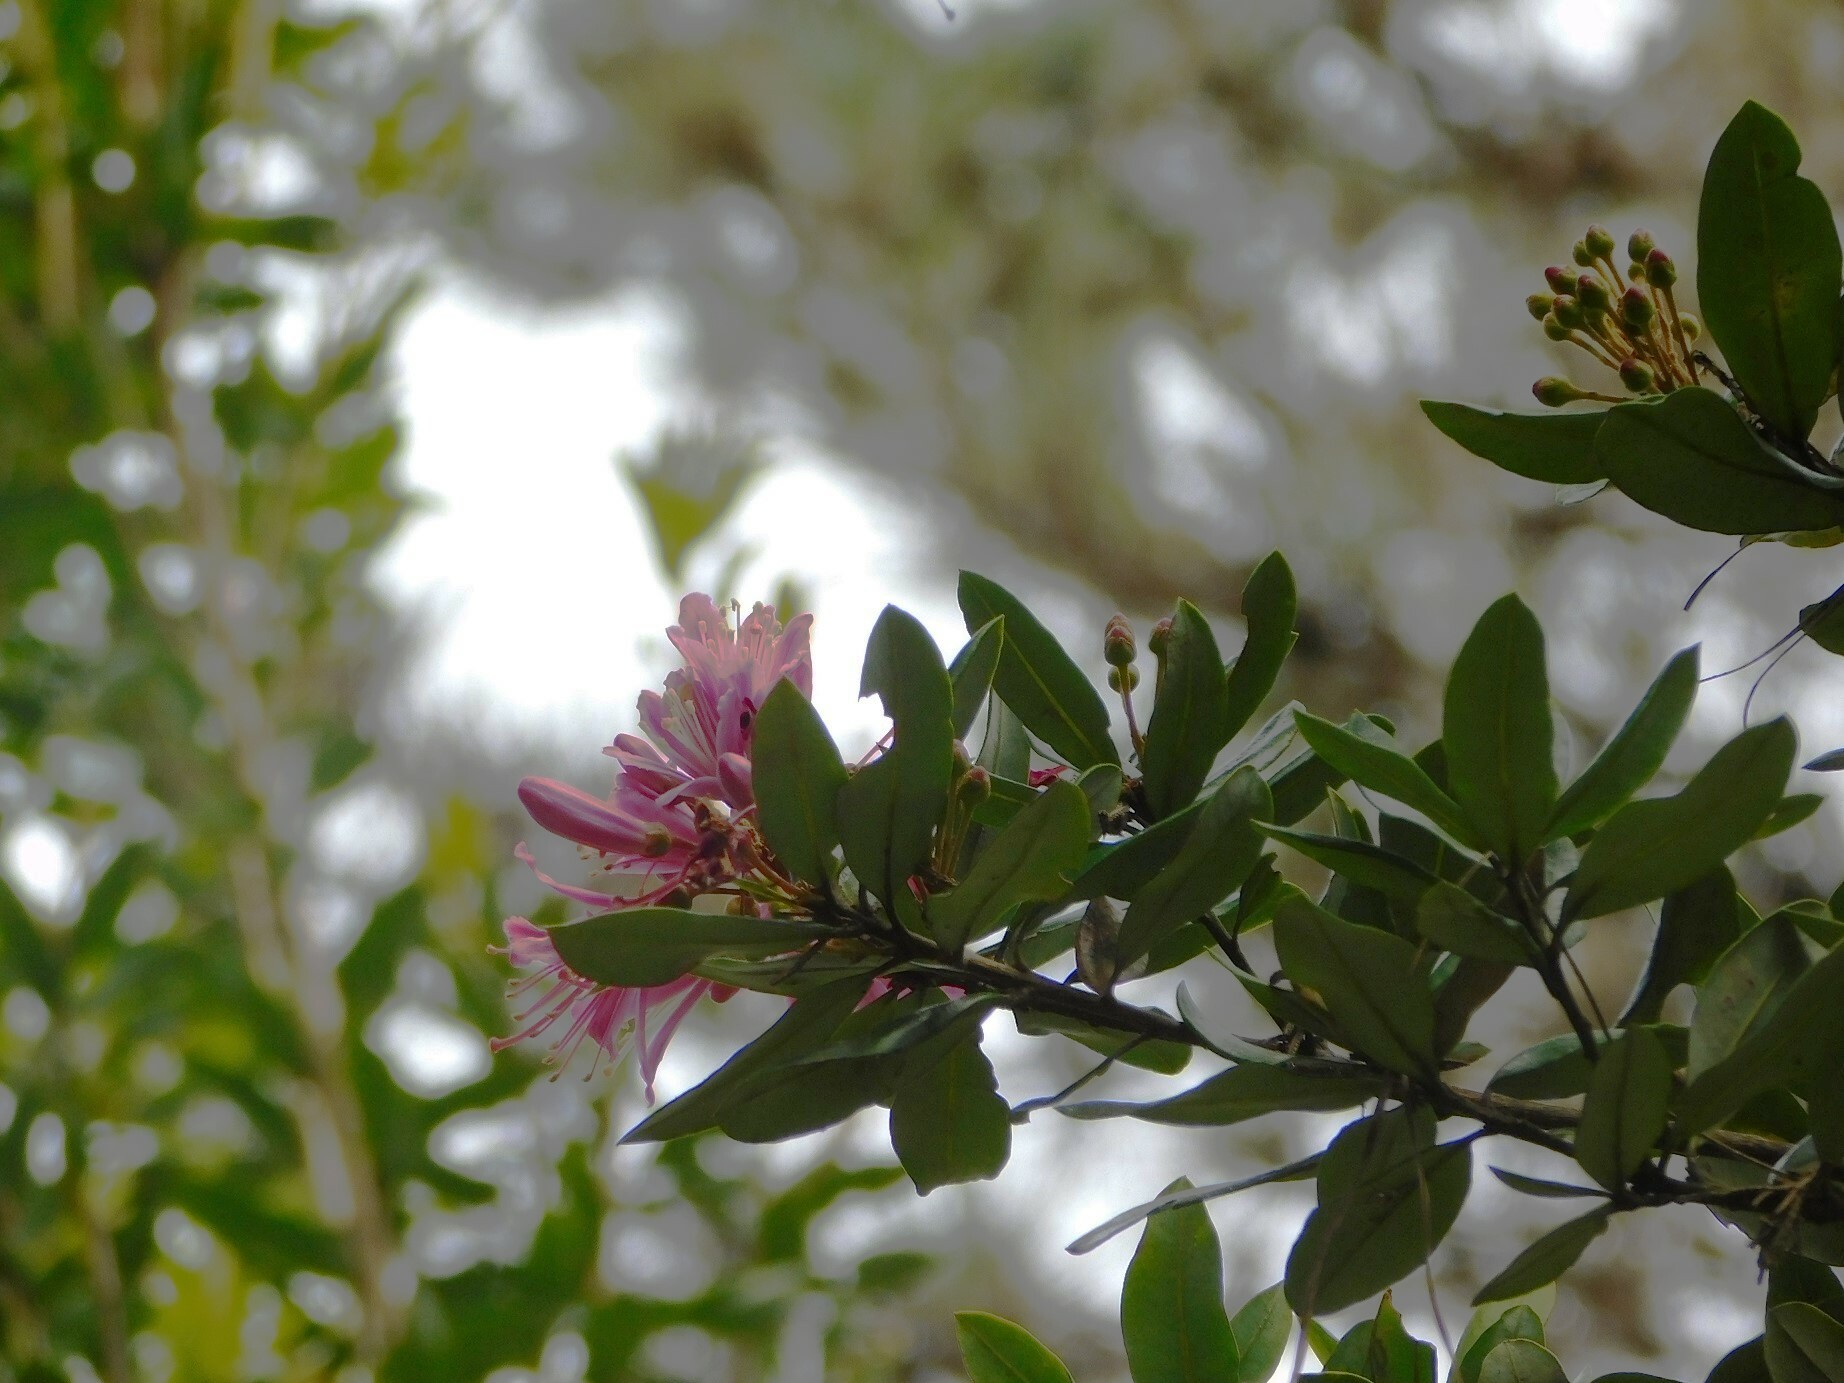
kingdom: Plantae
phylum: Tracheophyta
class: Magnoliopsida
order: Ericales
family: Ericaceae
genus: Bejaria
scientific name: Bejaria aestuans
